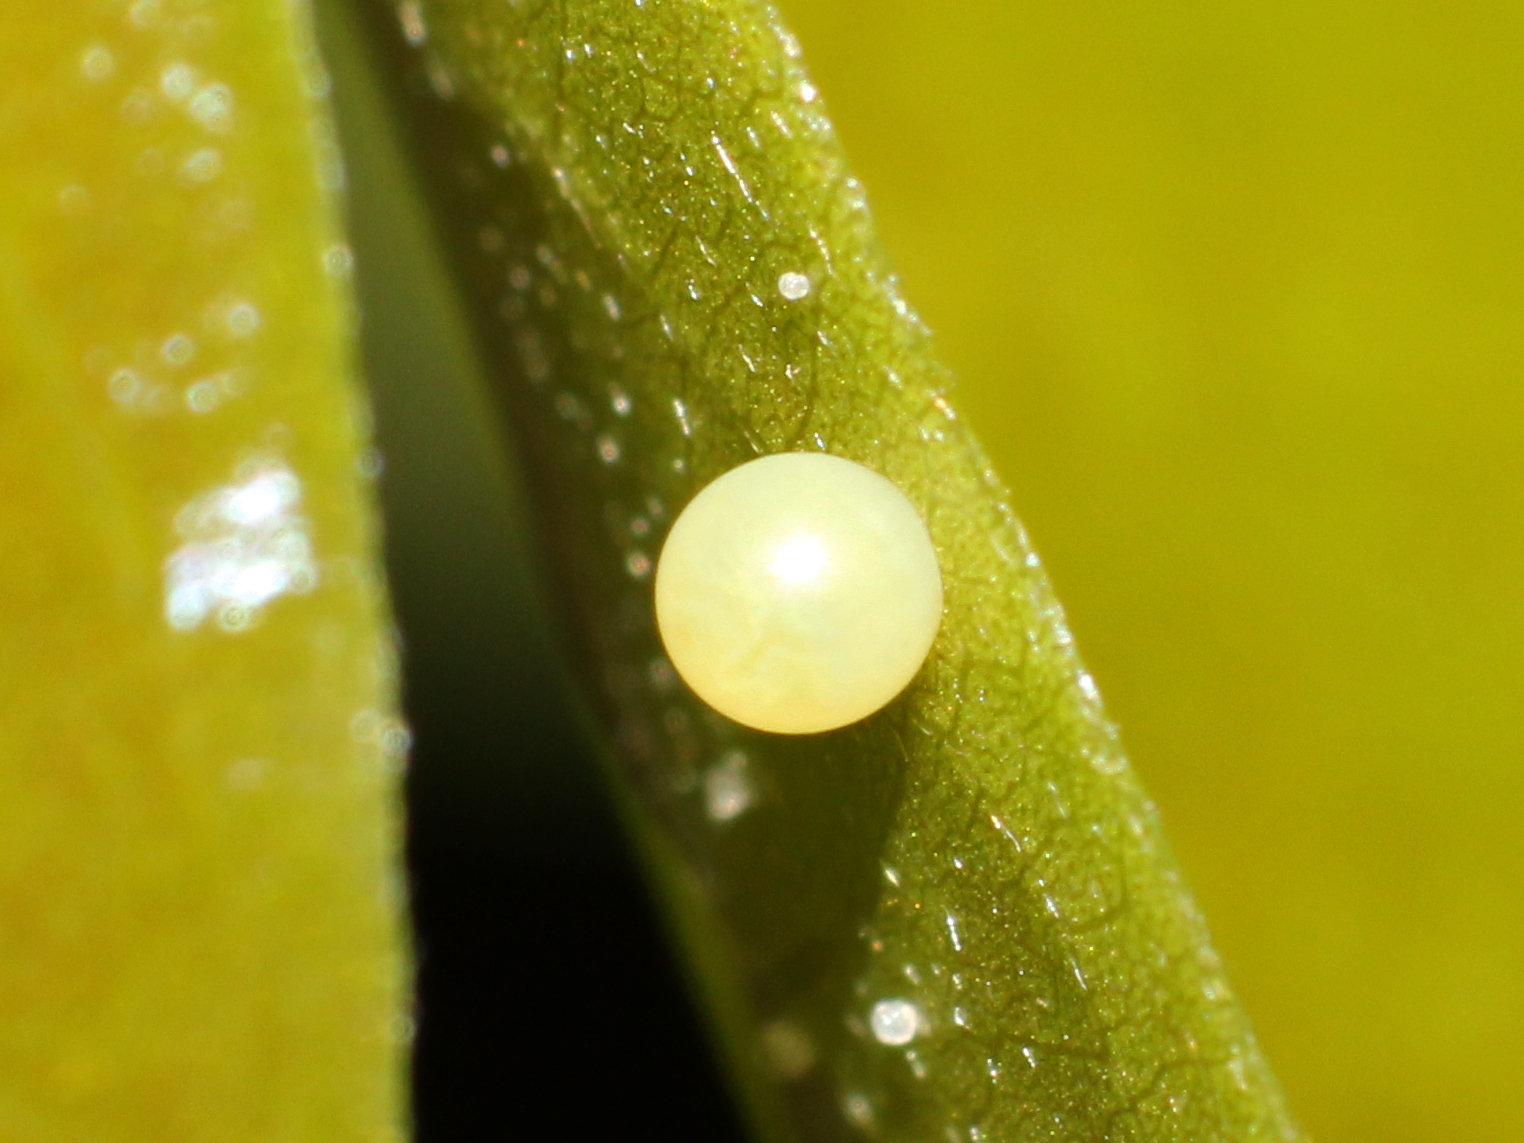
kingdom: Animalia
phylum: Arthropoda
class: Insecta
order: Lepidoptera
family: Papilionidae
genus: Graphium
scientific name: Graphium agamemnon
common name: Tailed jay
